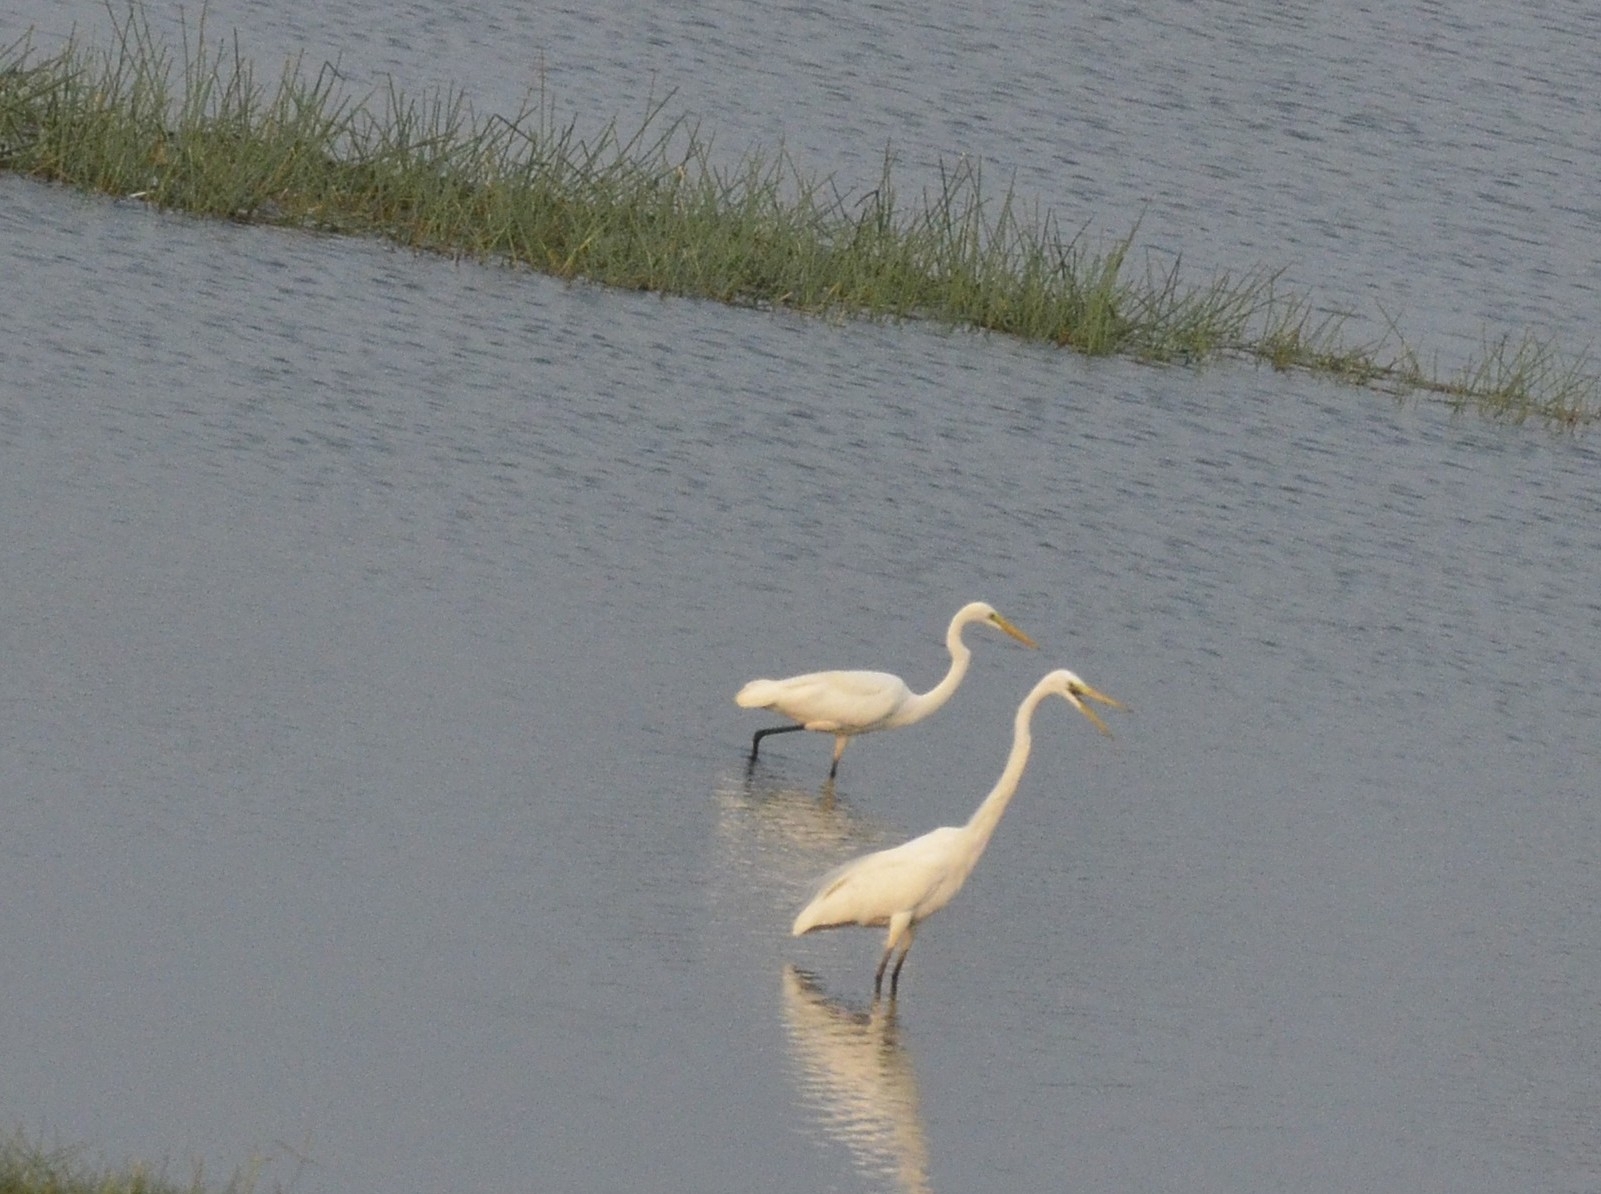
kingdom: Animalia
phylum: Chordata
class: Aves
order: Pelecaniformes
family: Ardeidae
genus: Ardea
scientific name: Ardea alba
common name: Great egret
